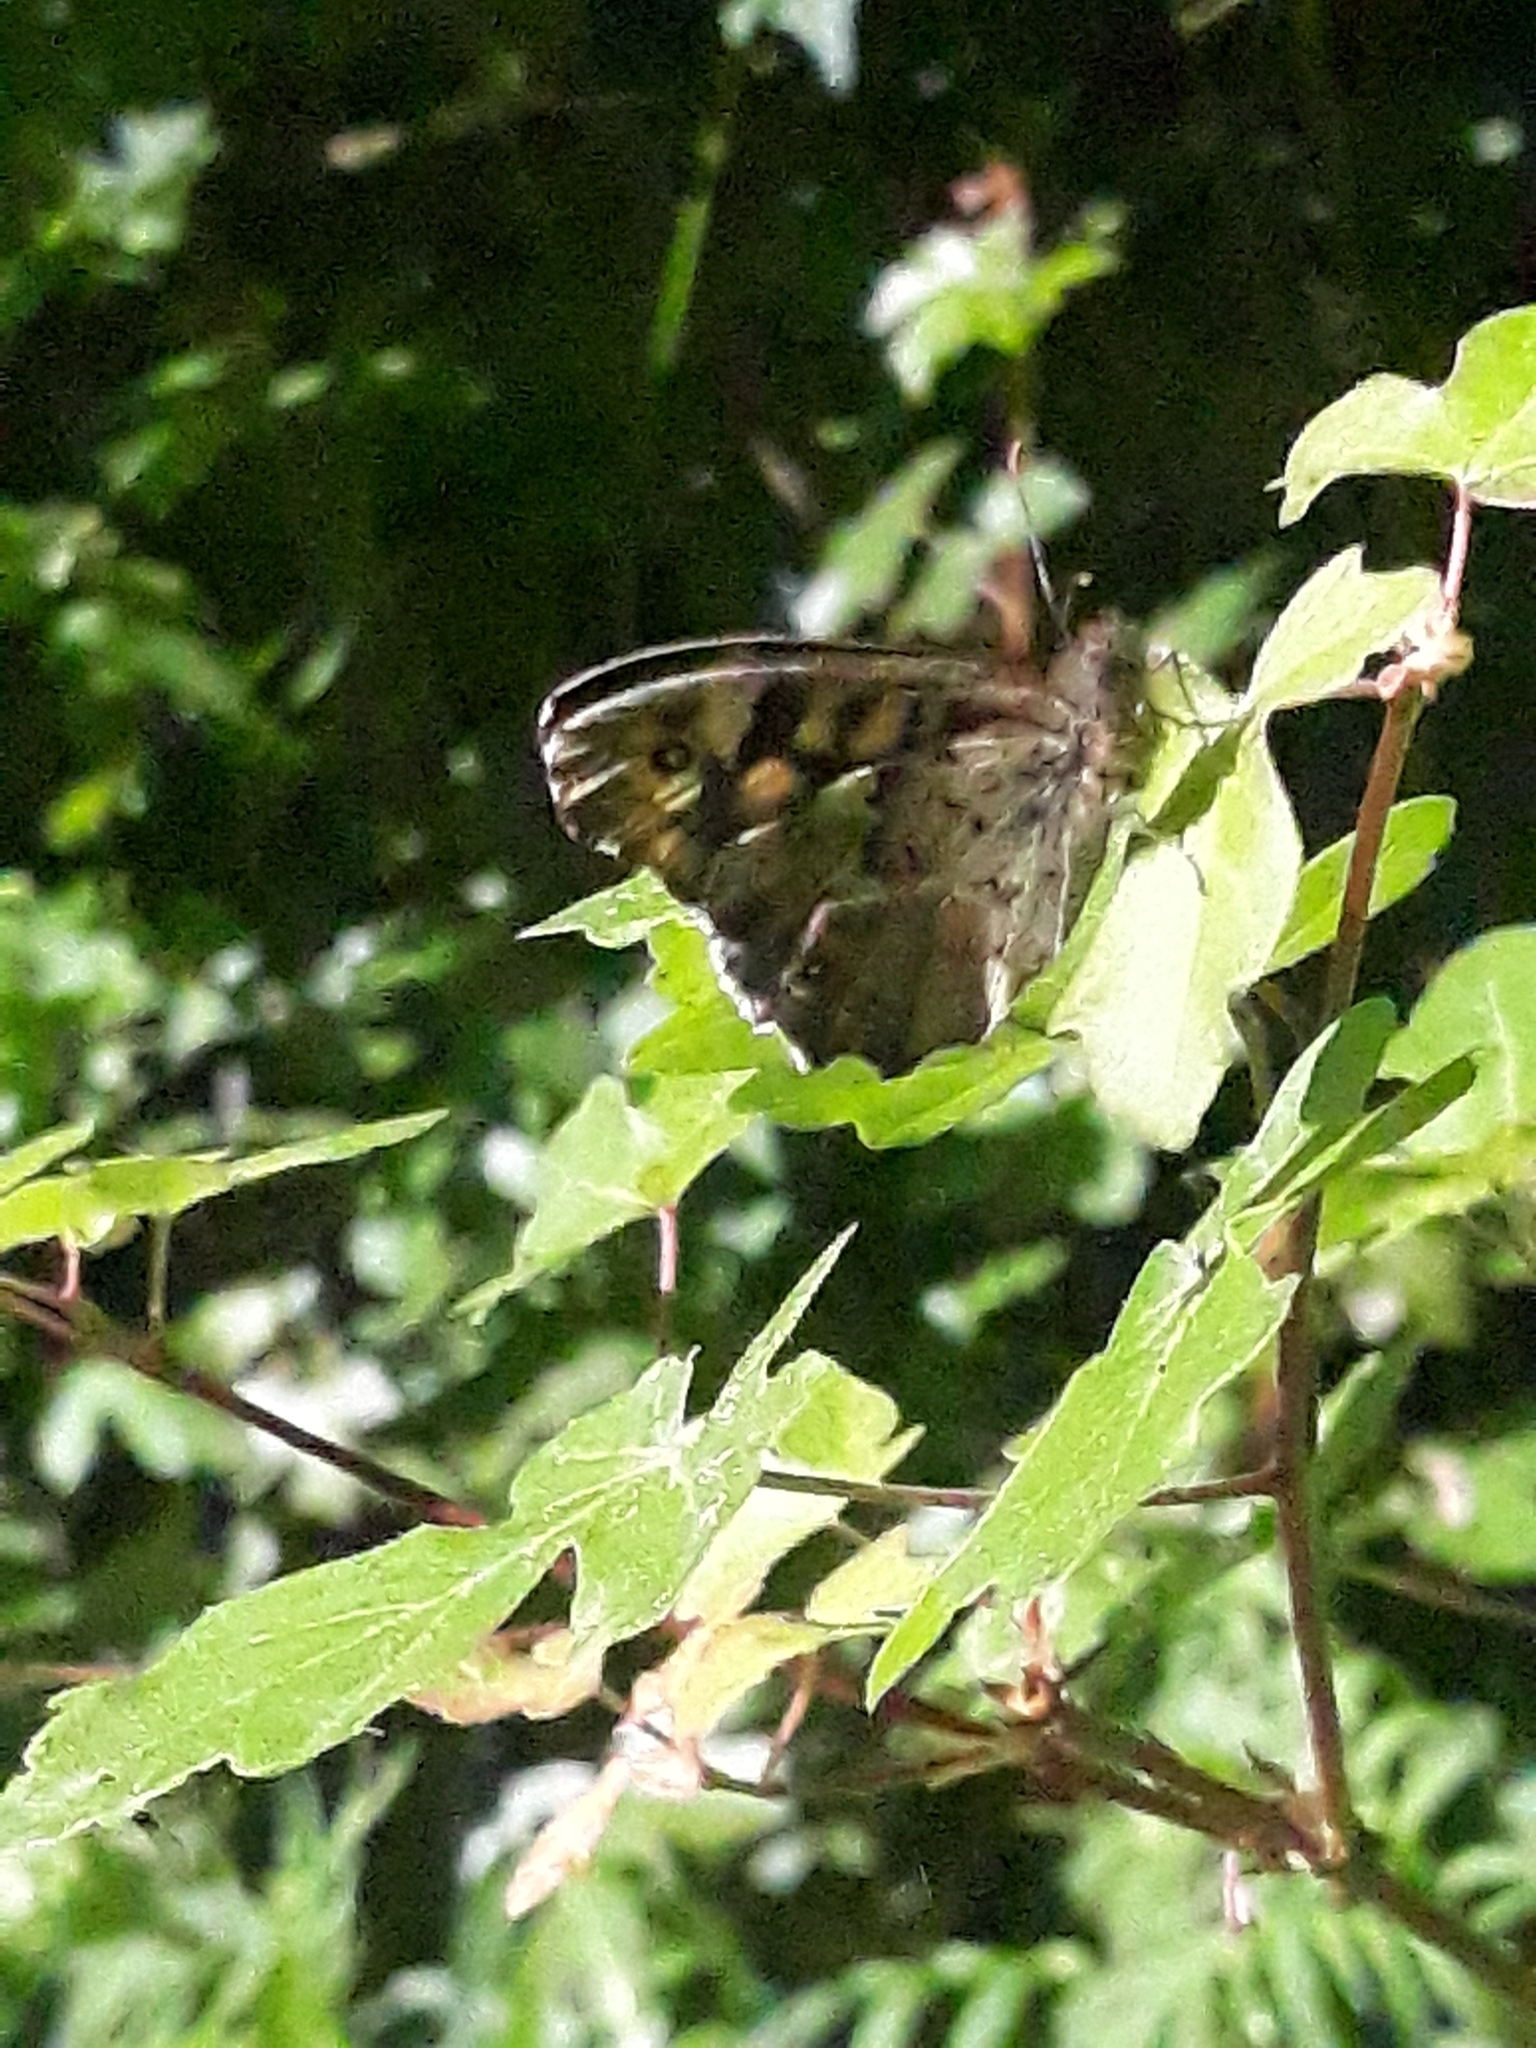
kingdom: Animalia
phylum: Arthropoda
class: Insecta
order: Lepidoptera
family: Nymphalidae
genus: Pararge
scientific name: Pararge aegeria
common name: Speckled wood
